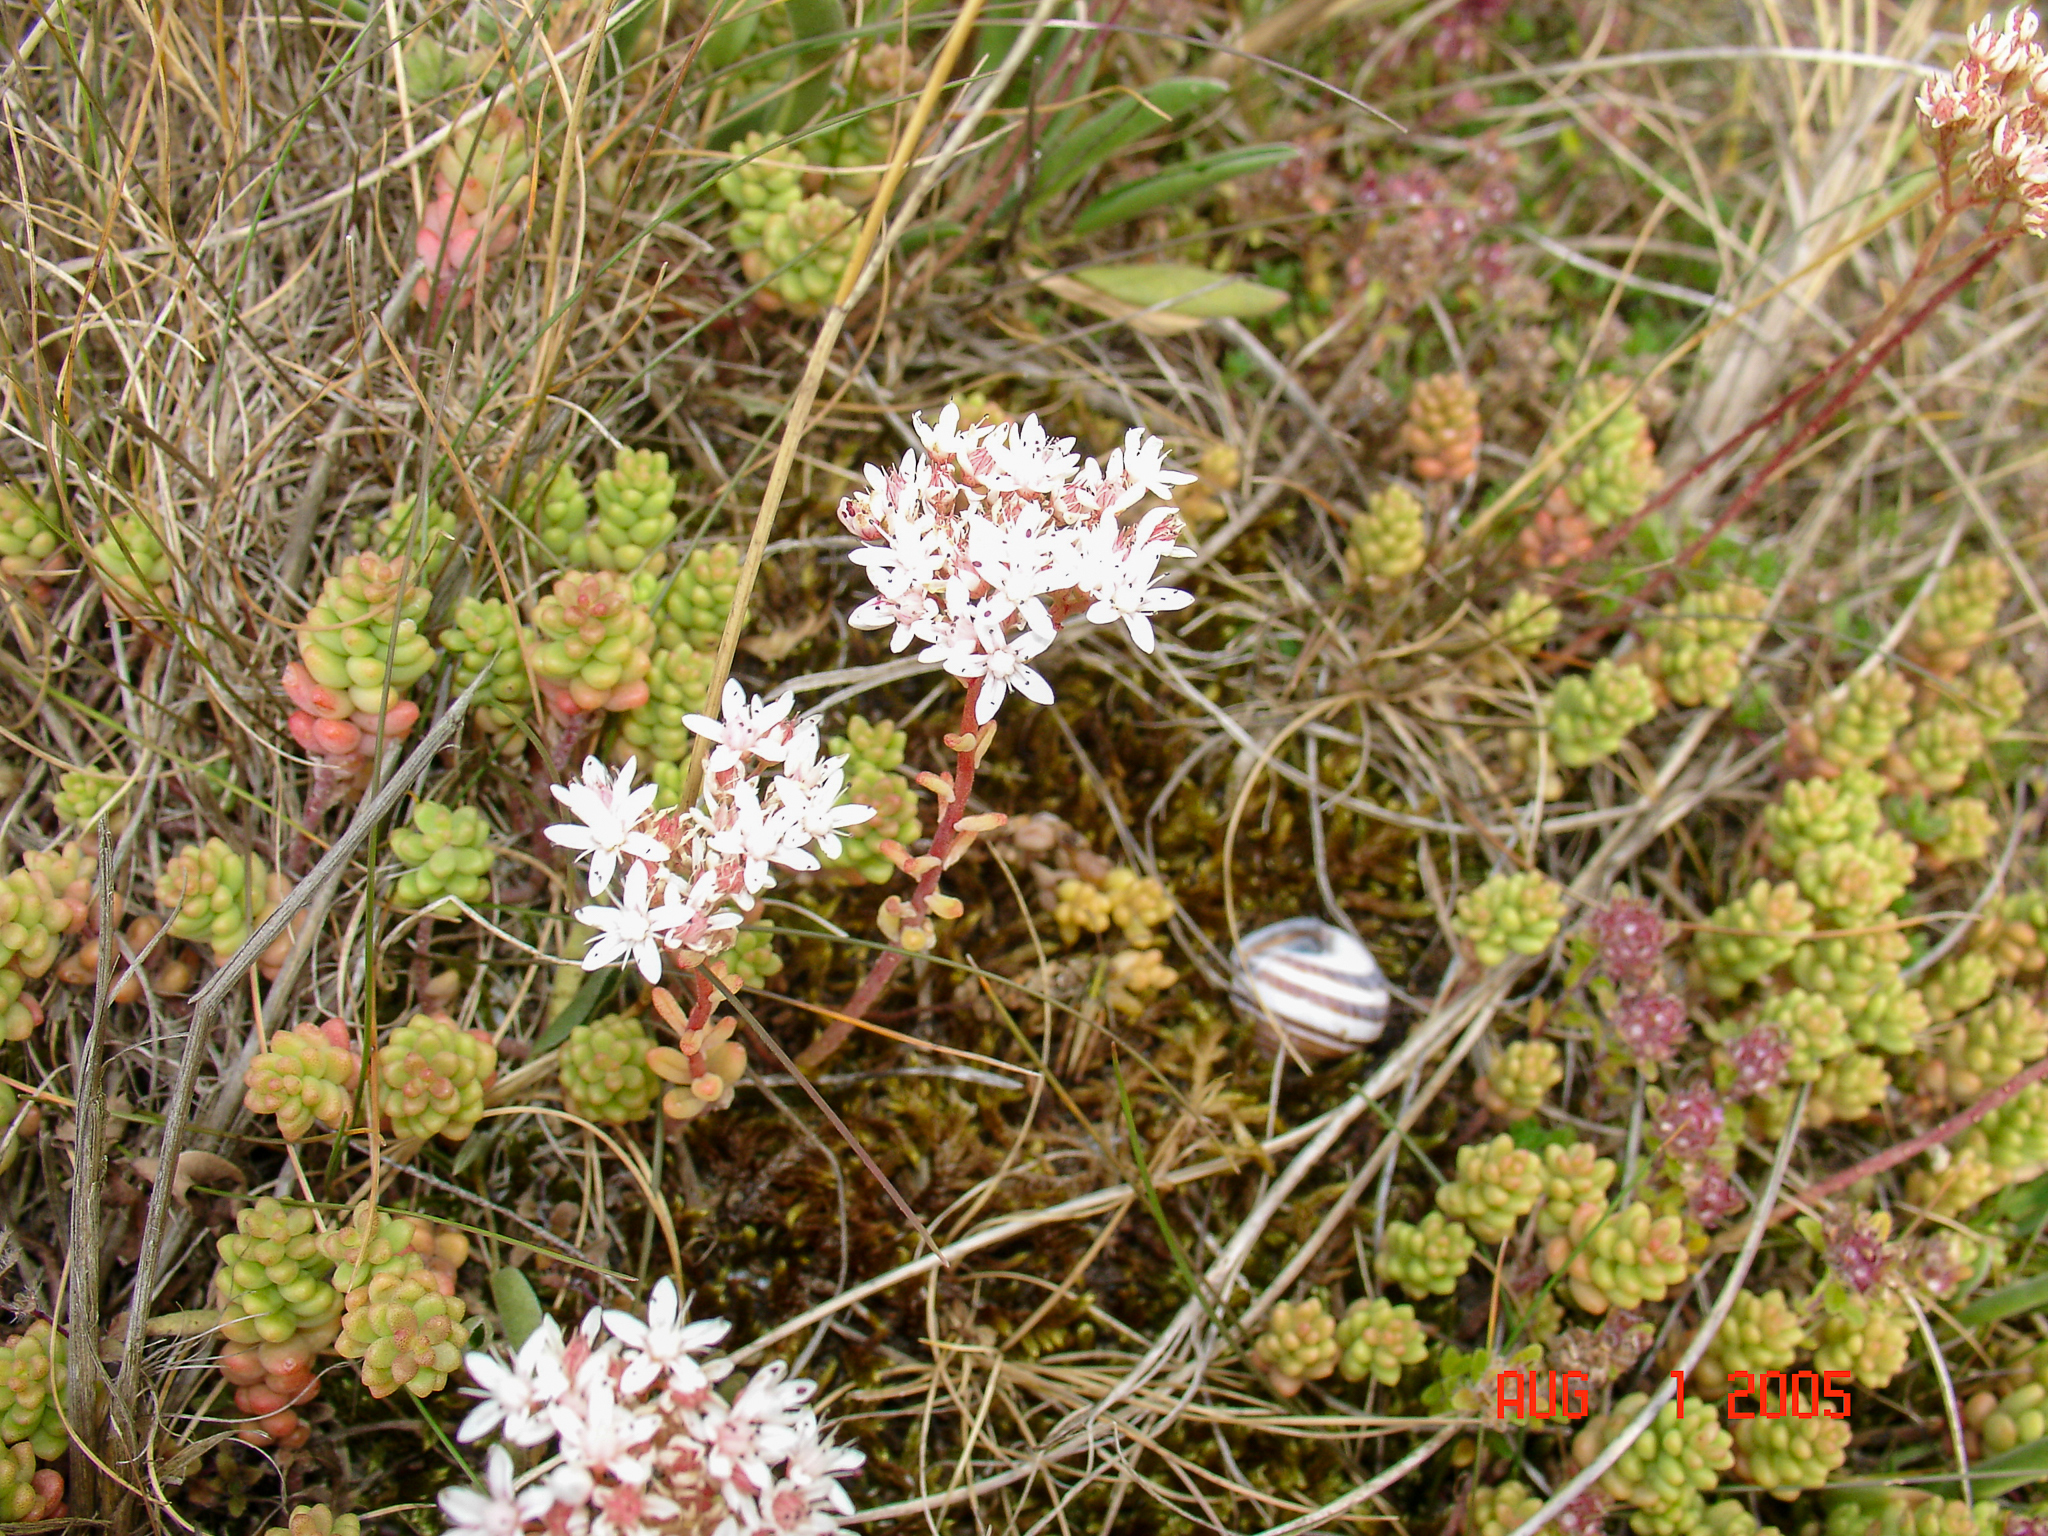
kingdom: Plantae
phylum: Tracheophyta
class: Magnoliopsida
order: Saxifragales
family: Crassulaceae
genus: Sedum
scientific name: Sedum album
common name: White stonecrop
